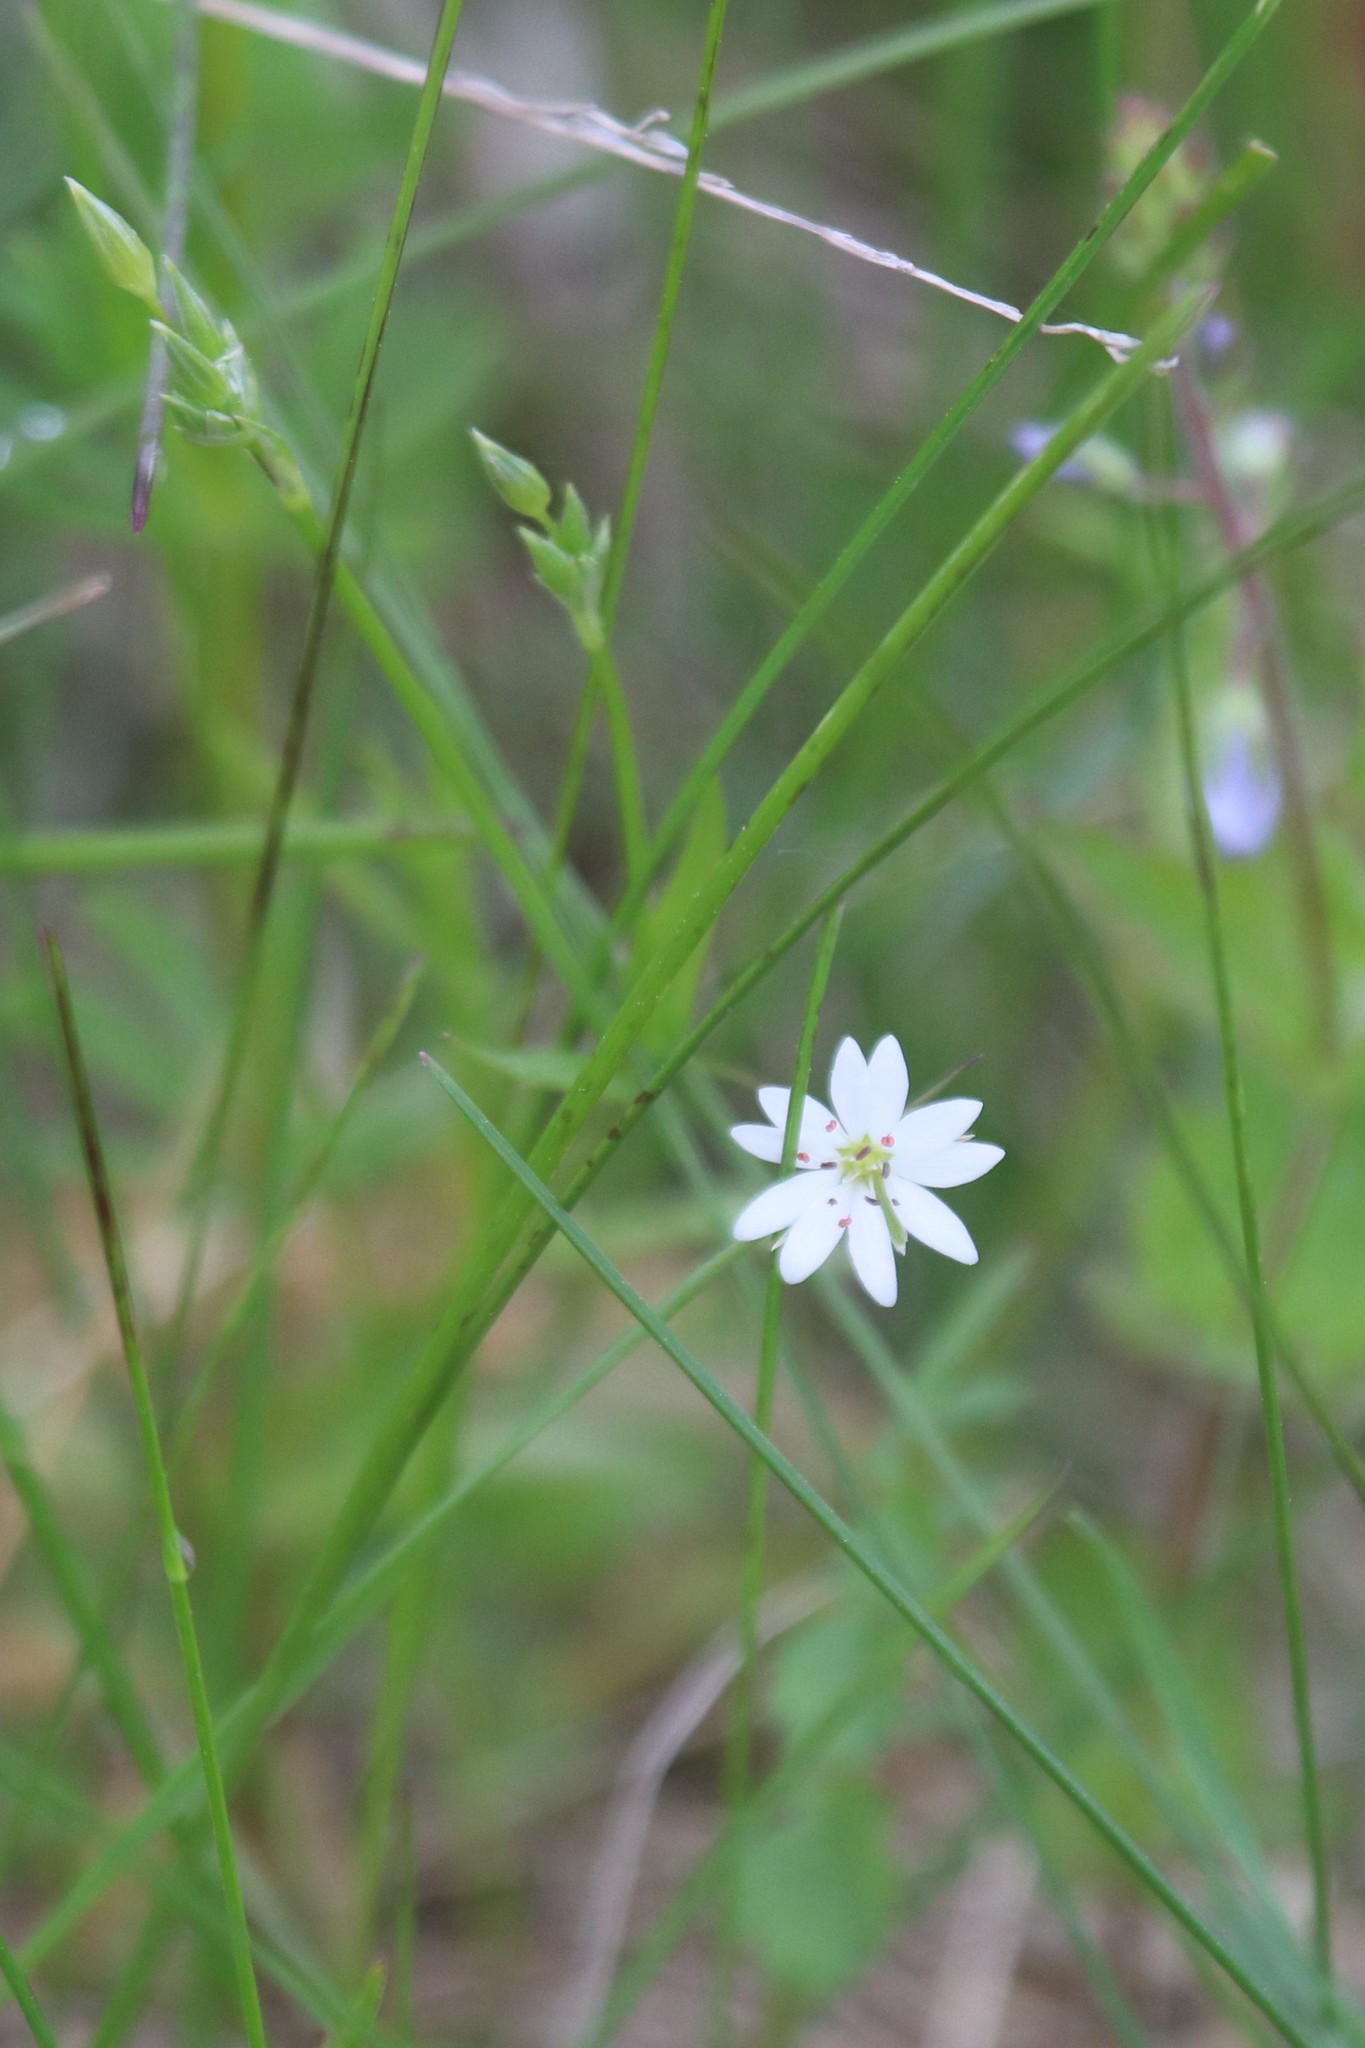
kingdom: Plantae
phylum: Tracheophyta
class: Magnoliopsida
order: Caryophyllales
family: Caryophyllaceae
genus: Stellaria
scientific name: Stellaria graminea
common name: Grass-like starwort
